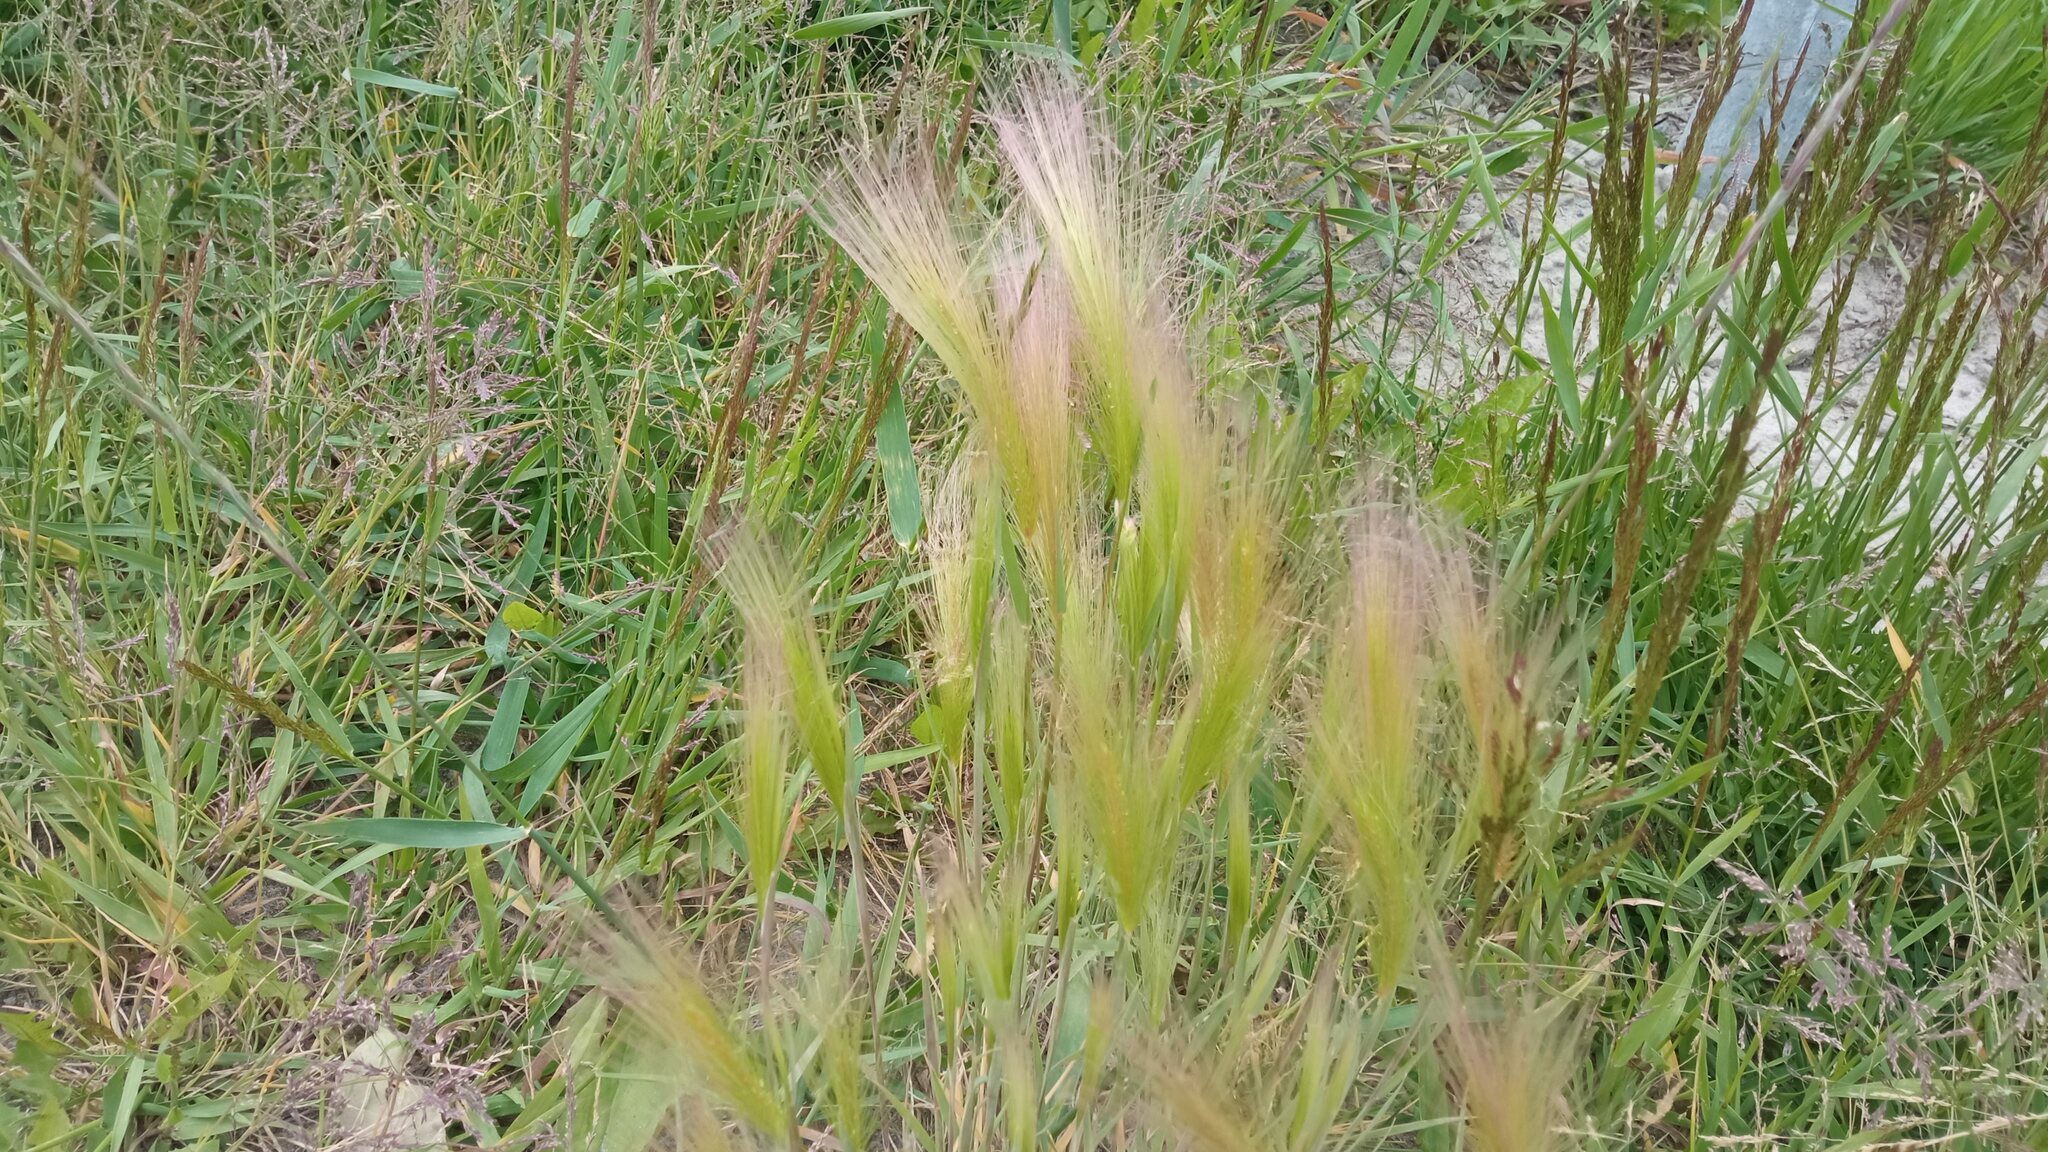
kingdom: Plantae
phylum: Tracheophyta
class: Liliopsida
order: Poales
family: Poaceae
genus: Hordeum
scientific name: Hordeum jubatum
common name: Foxtail barley
